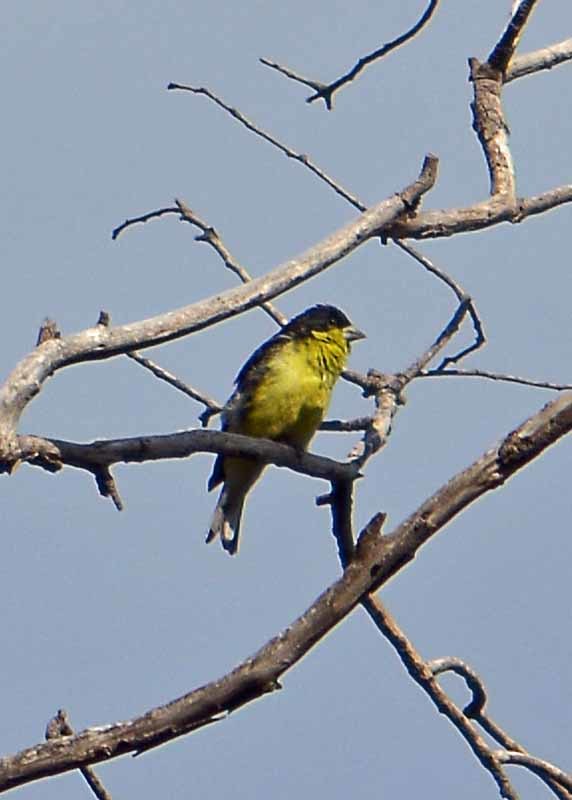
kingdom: Animalia
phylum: Chordata
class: Aves
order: Passeriformes
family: Fringillidae
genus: Spinus
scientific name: Spinus psaltria
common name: Lesser goldfinch
